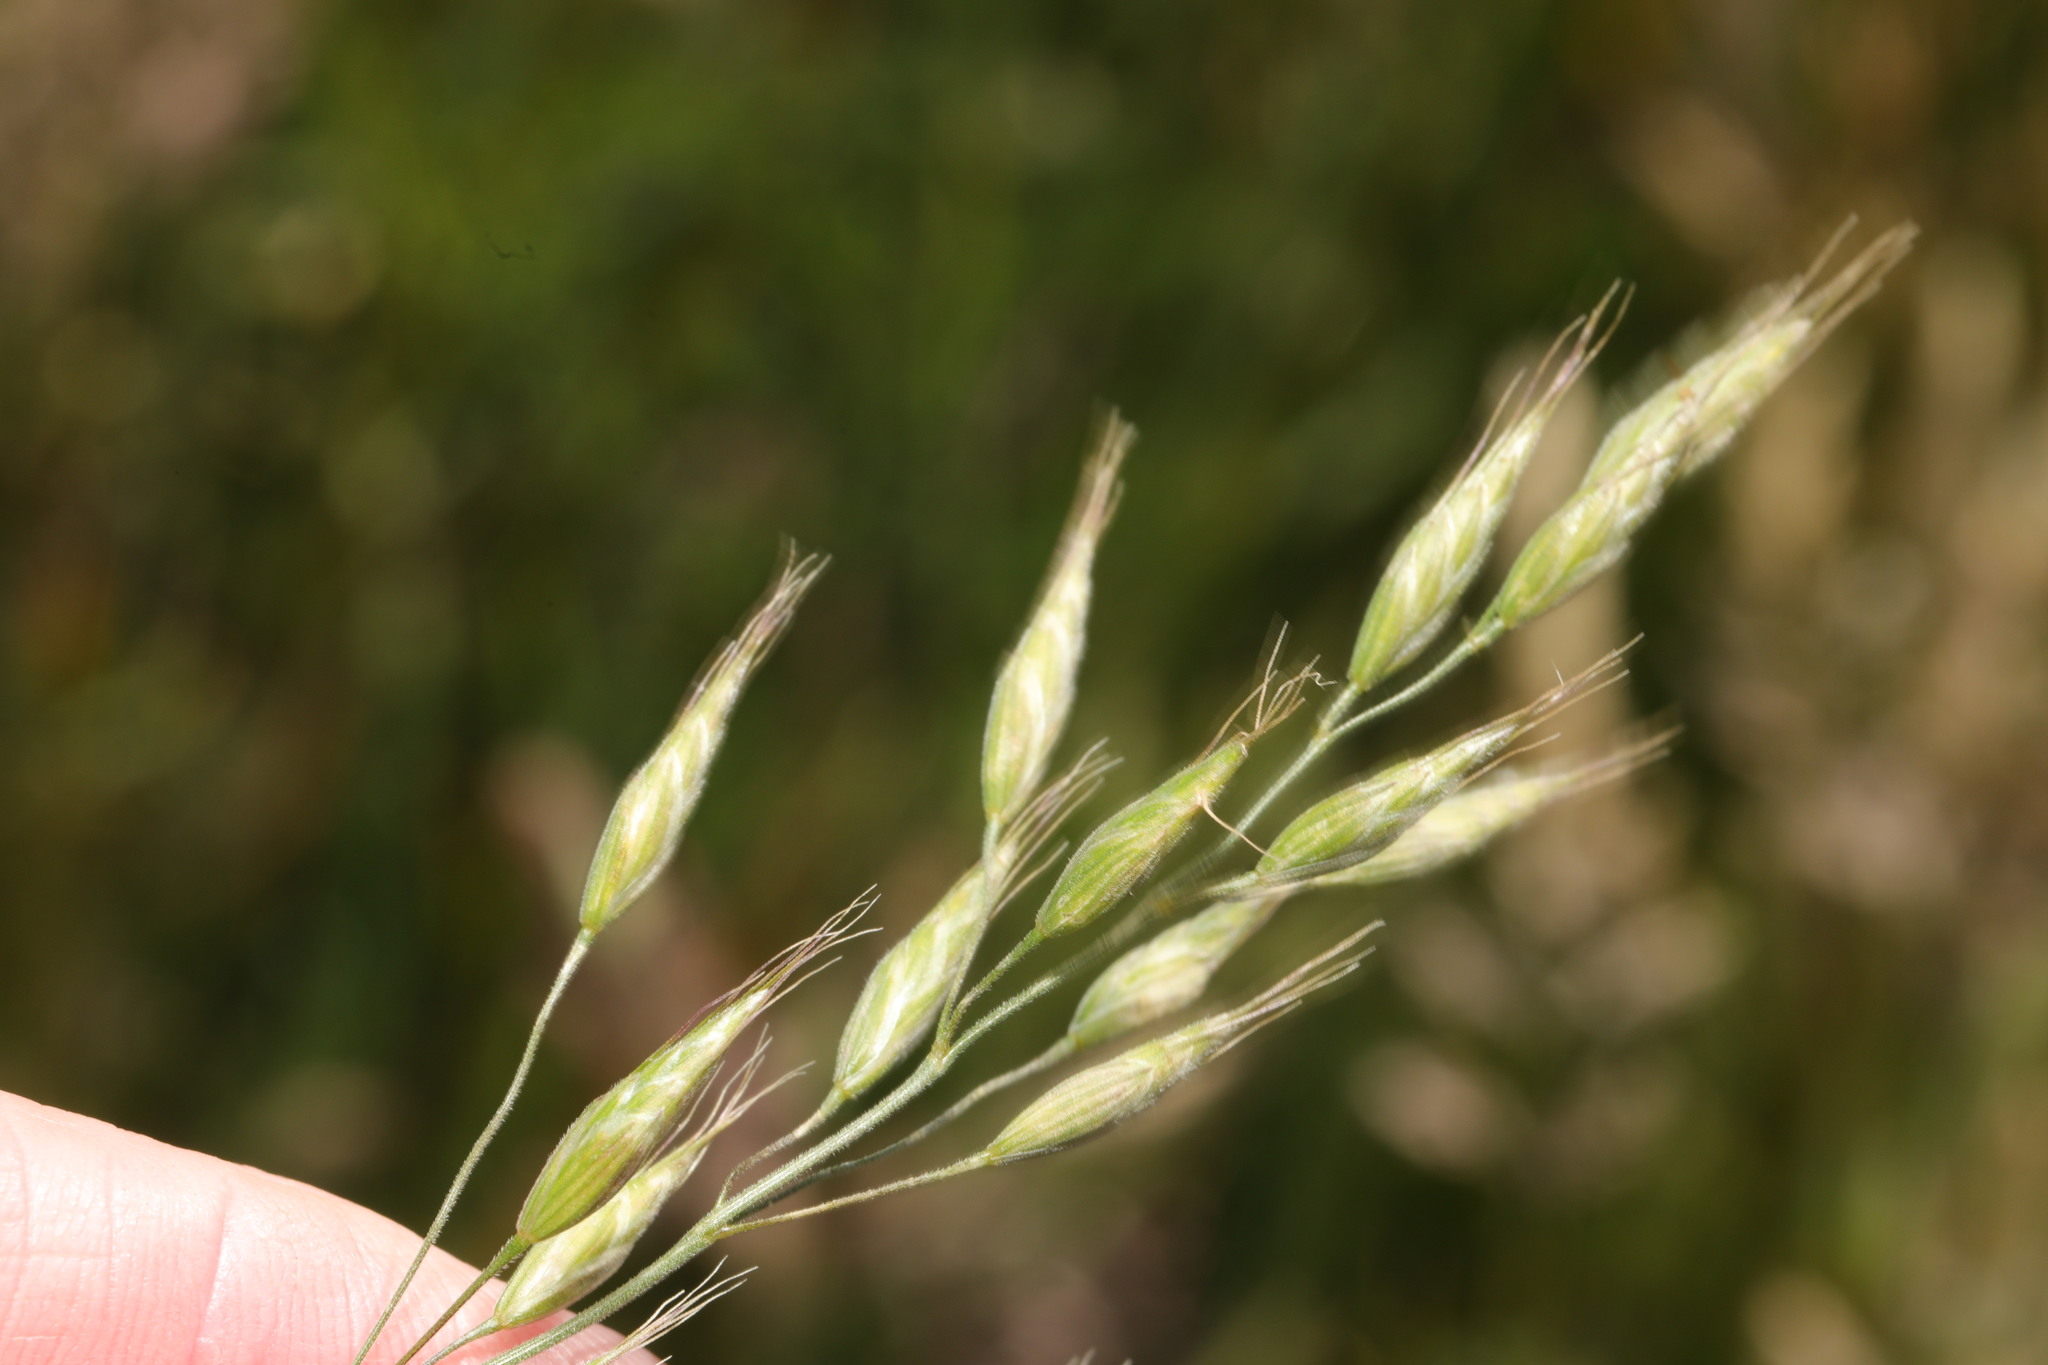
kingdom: Plantae
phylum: Tracheophyta
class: Liliopsida
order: Poales
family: Poaceae
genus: Bromus
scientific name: Bromus hordeaceus
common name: Soft brome
